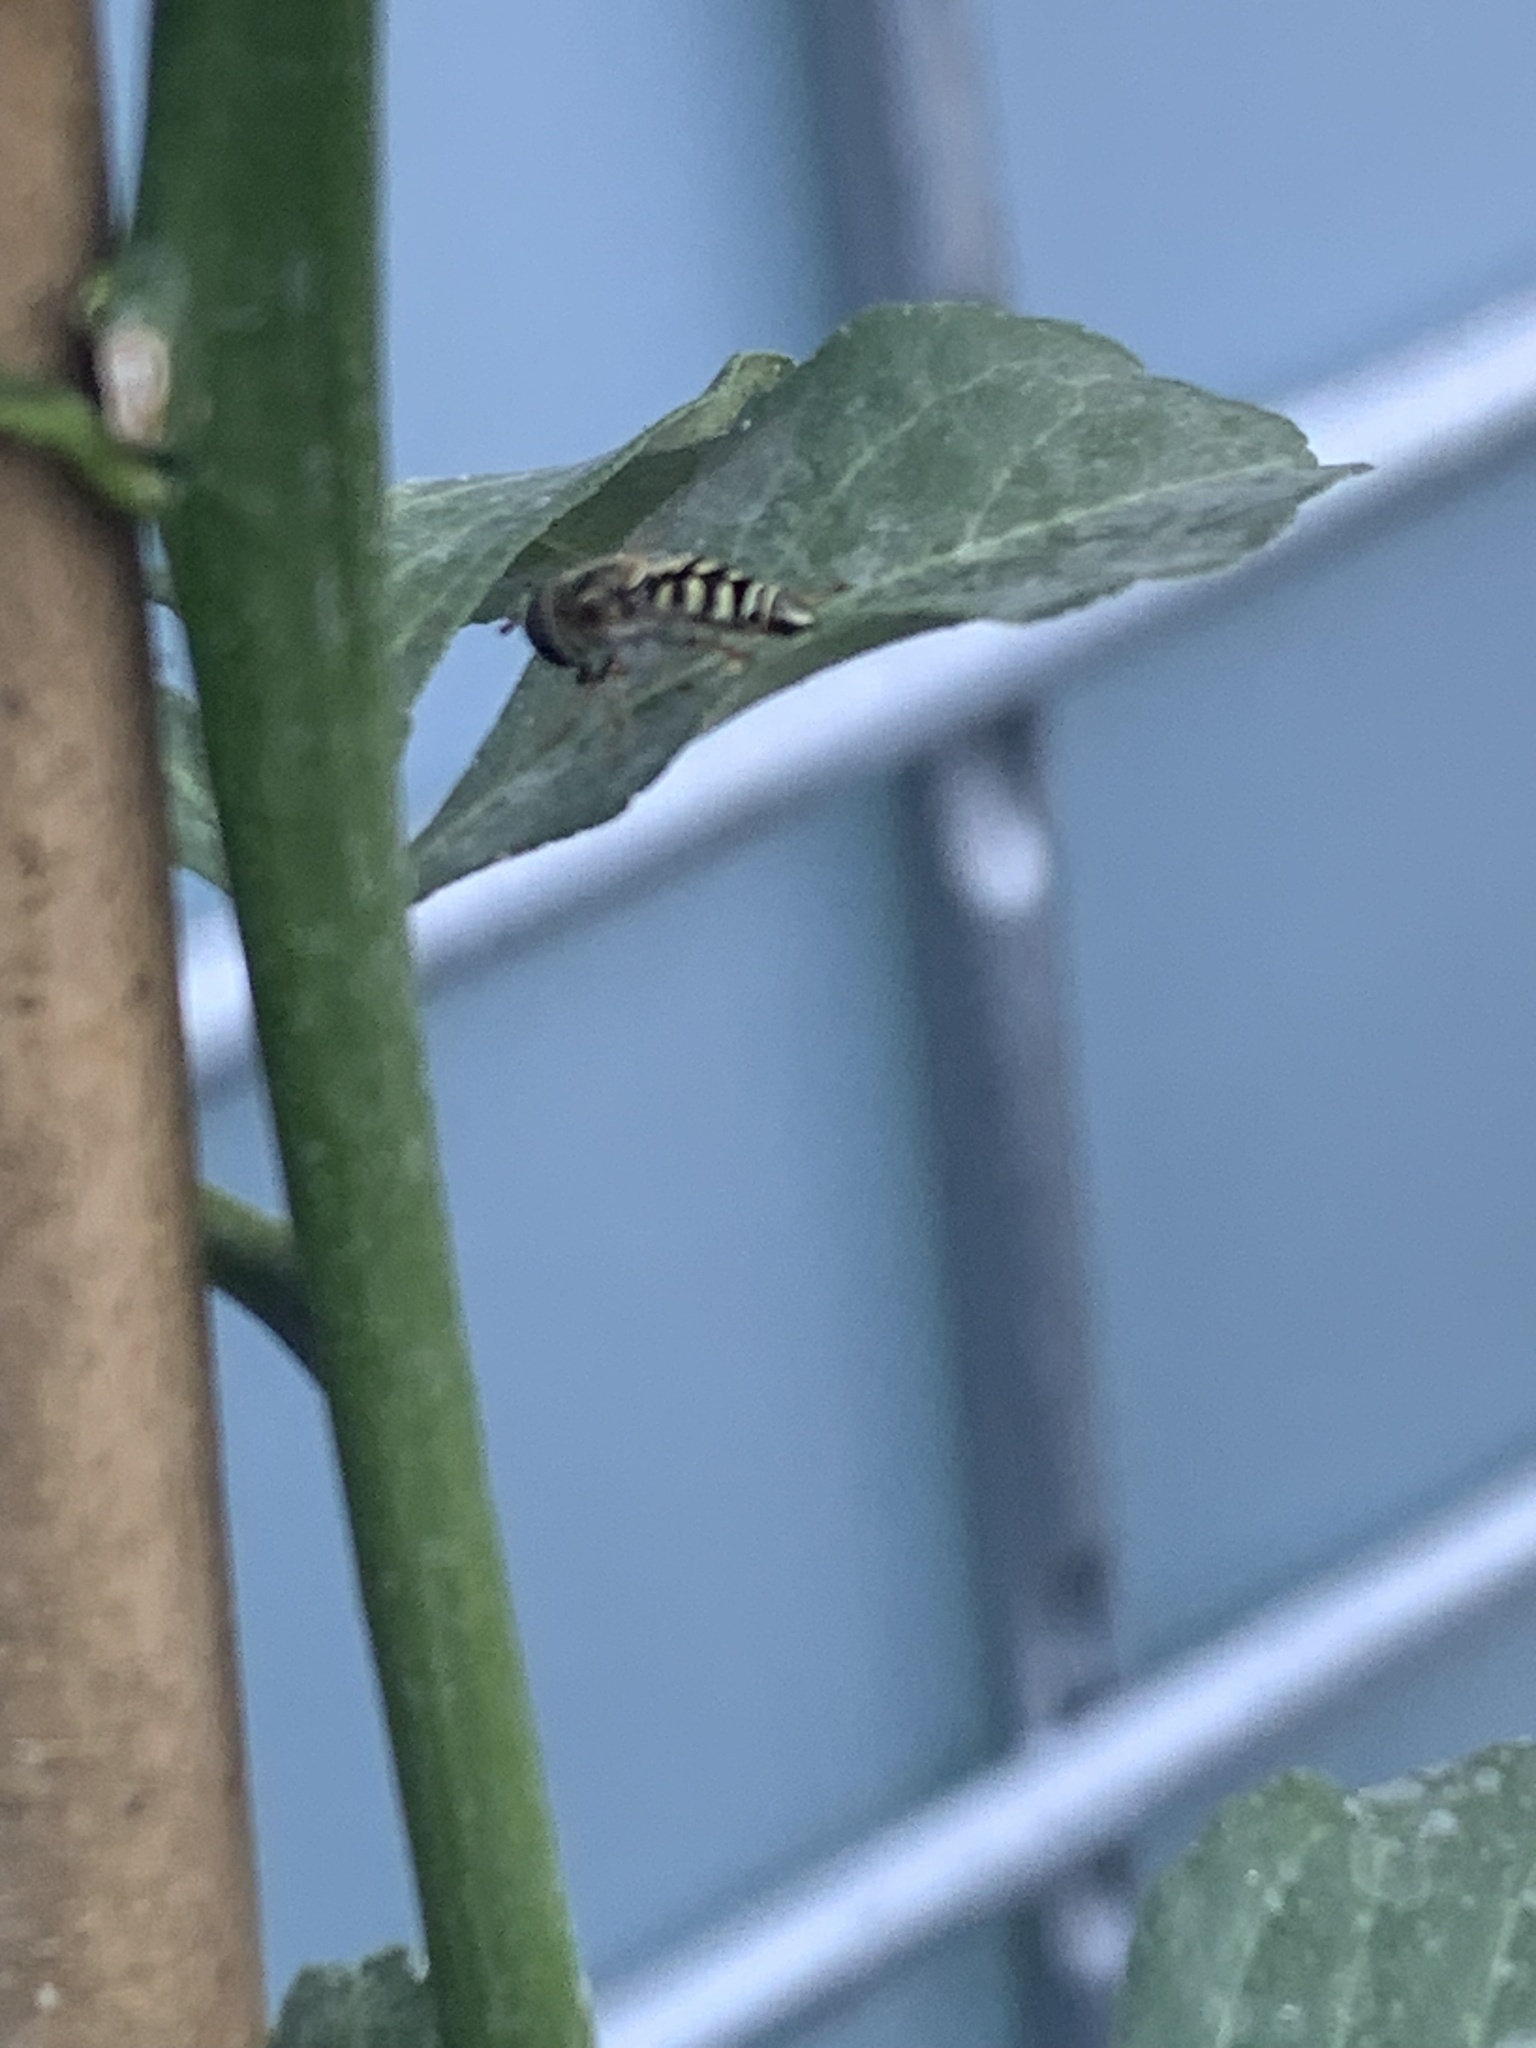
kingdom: Animalia
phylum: Arthropoda
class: Insecta
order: Diptera
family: Syrphidae
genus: Eupeodes
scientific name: Eupeodes volucris
